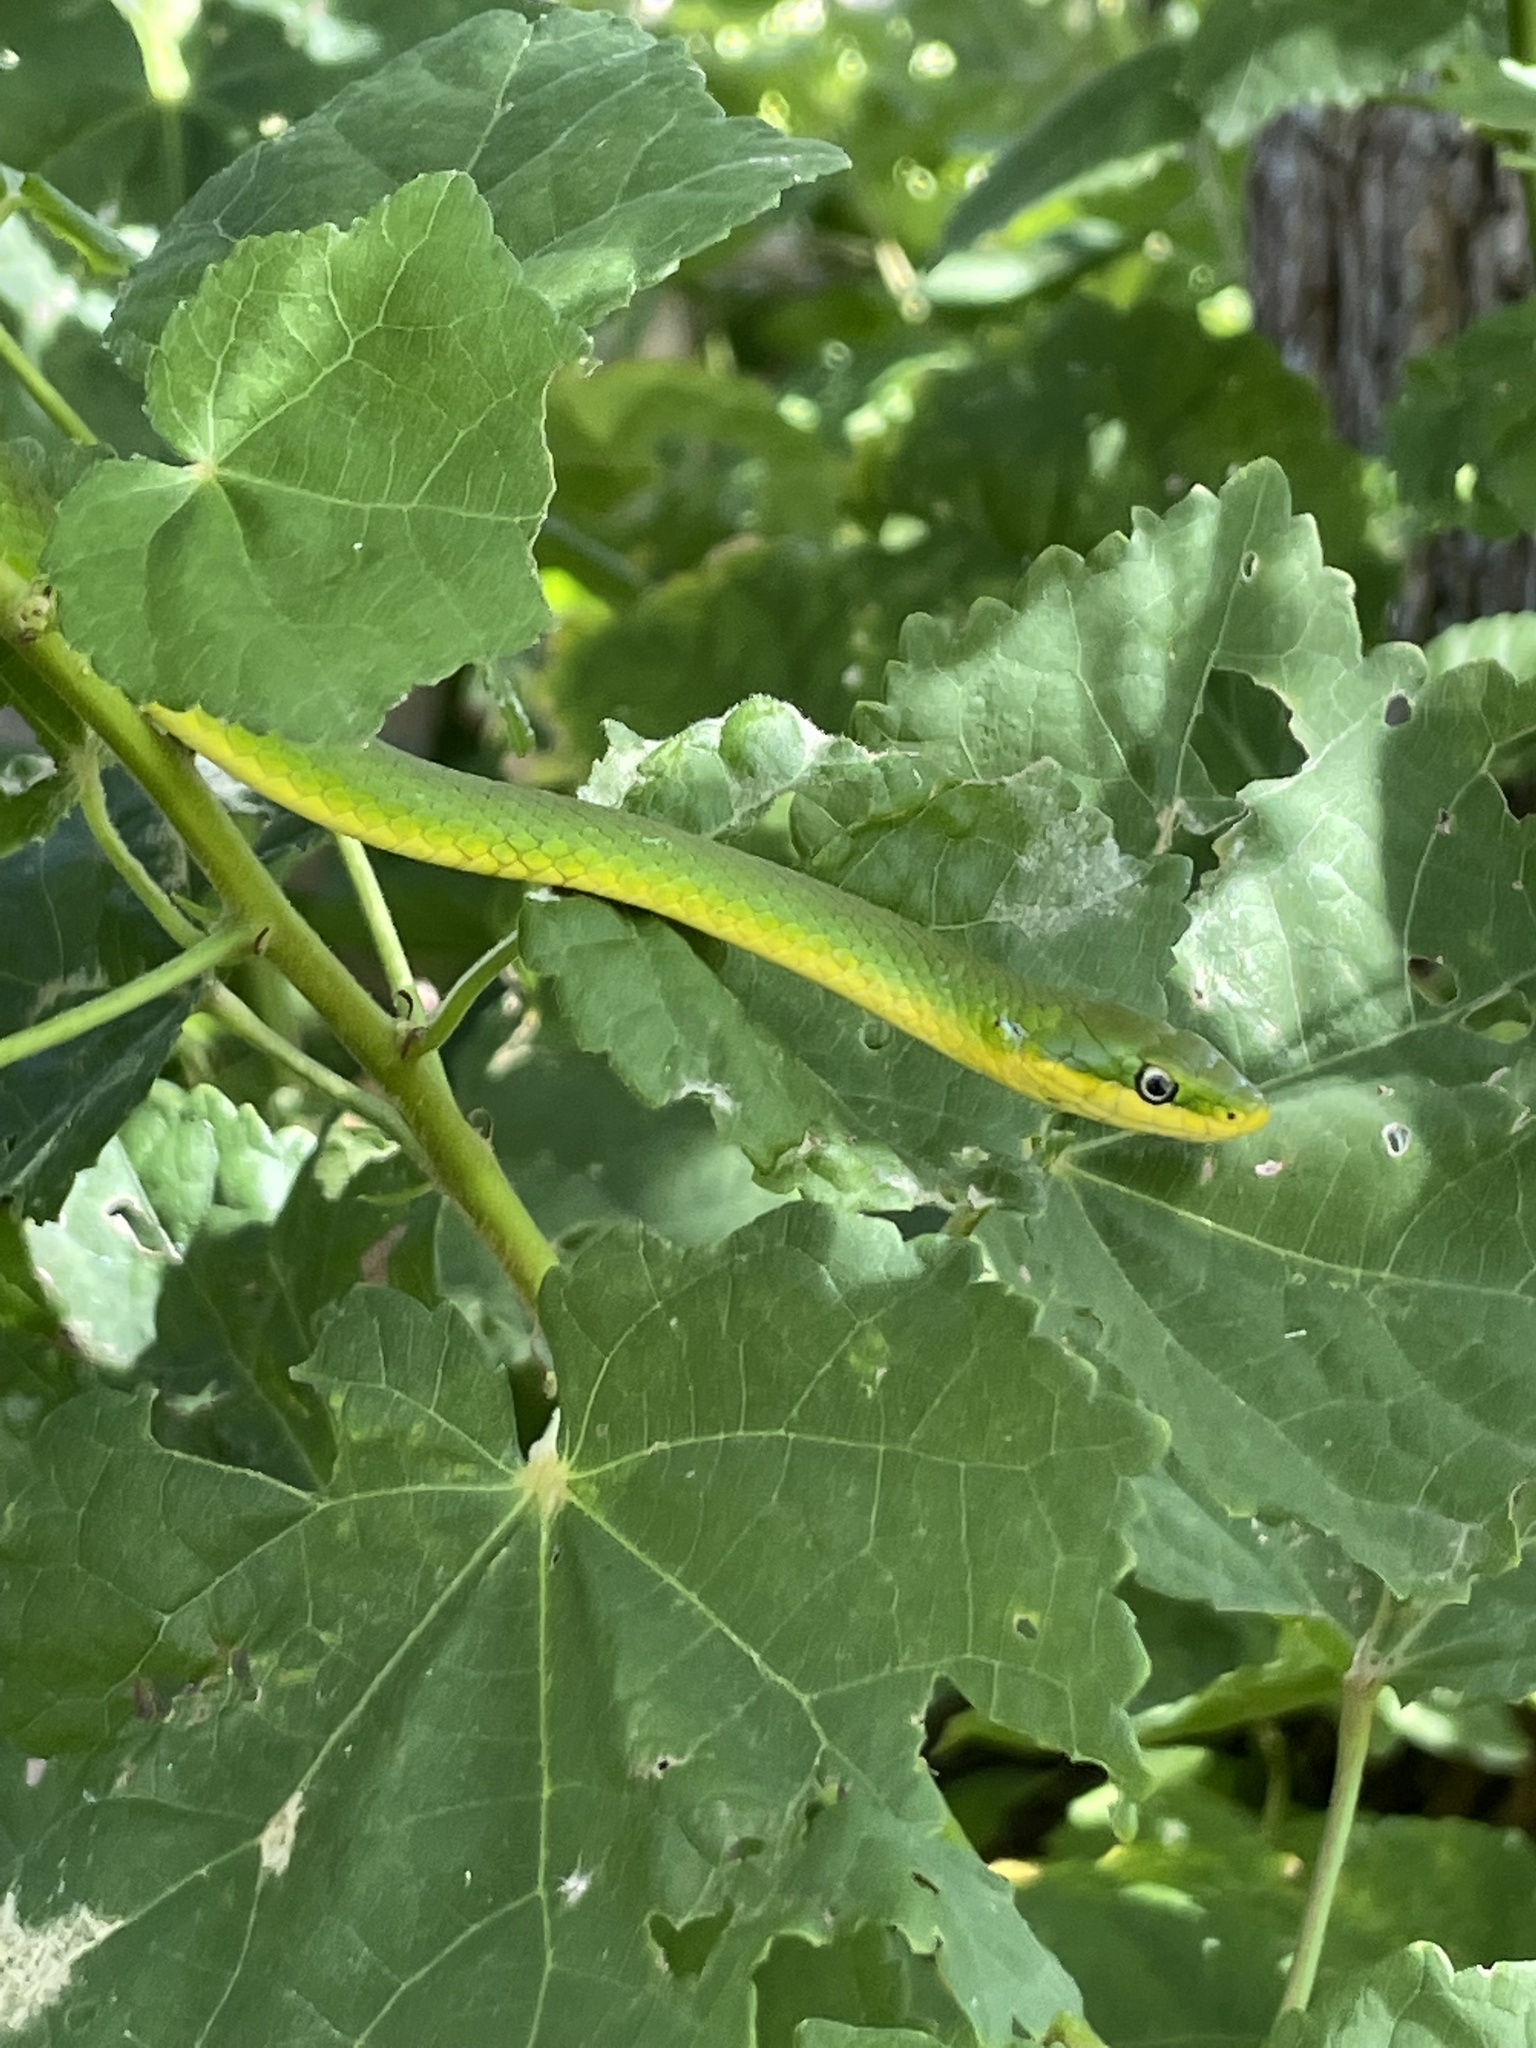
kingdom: Animalia
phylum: Chordata
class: Squamata
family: Colubridae
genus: Opheodrys
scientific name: Opheodrys aestivus
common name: Rough greensnake
